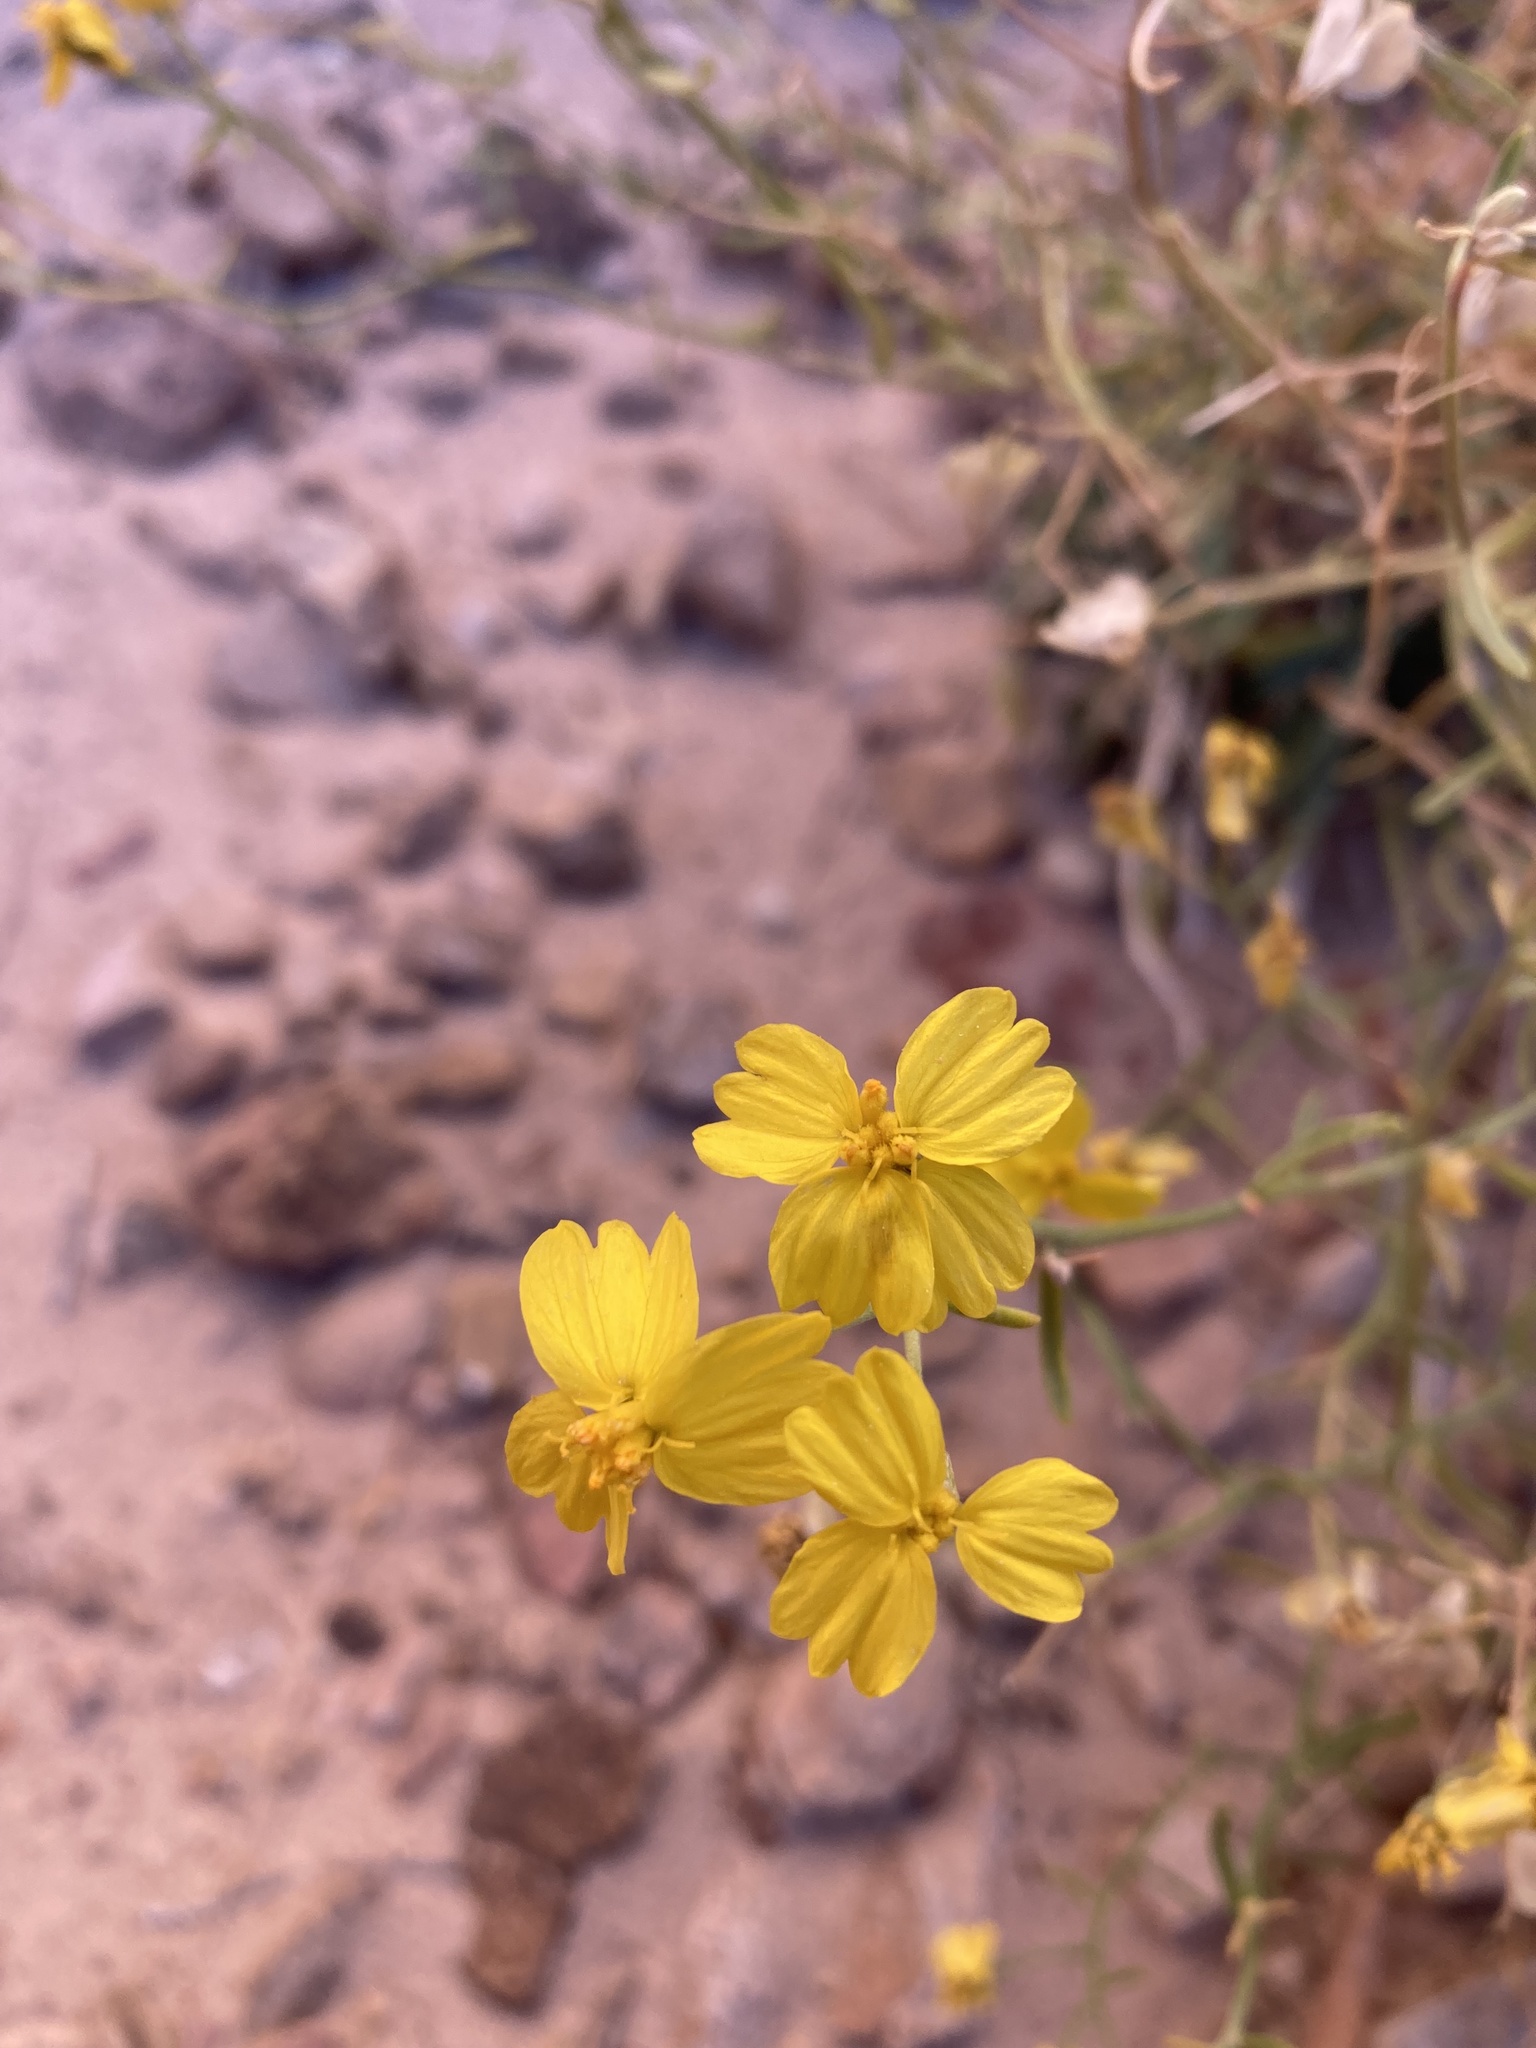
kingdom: Plantae
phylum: Tracheophyta
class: Magnoliopsida
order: Asterales
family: Asteraceae
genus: Psilostrophe
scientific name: Psilostrophe sparsiflora
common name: Green-stem paper-flower
